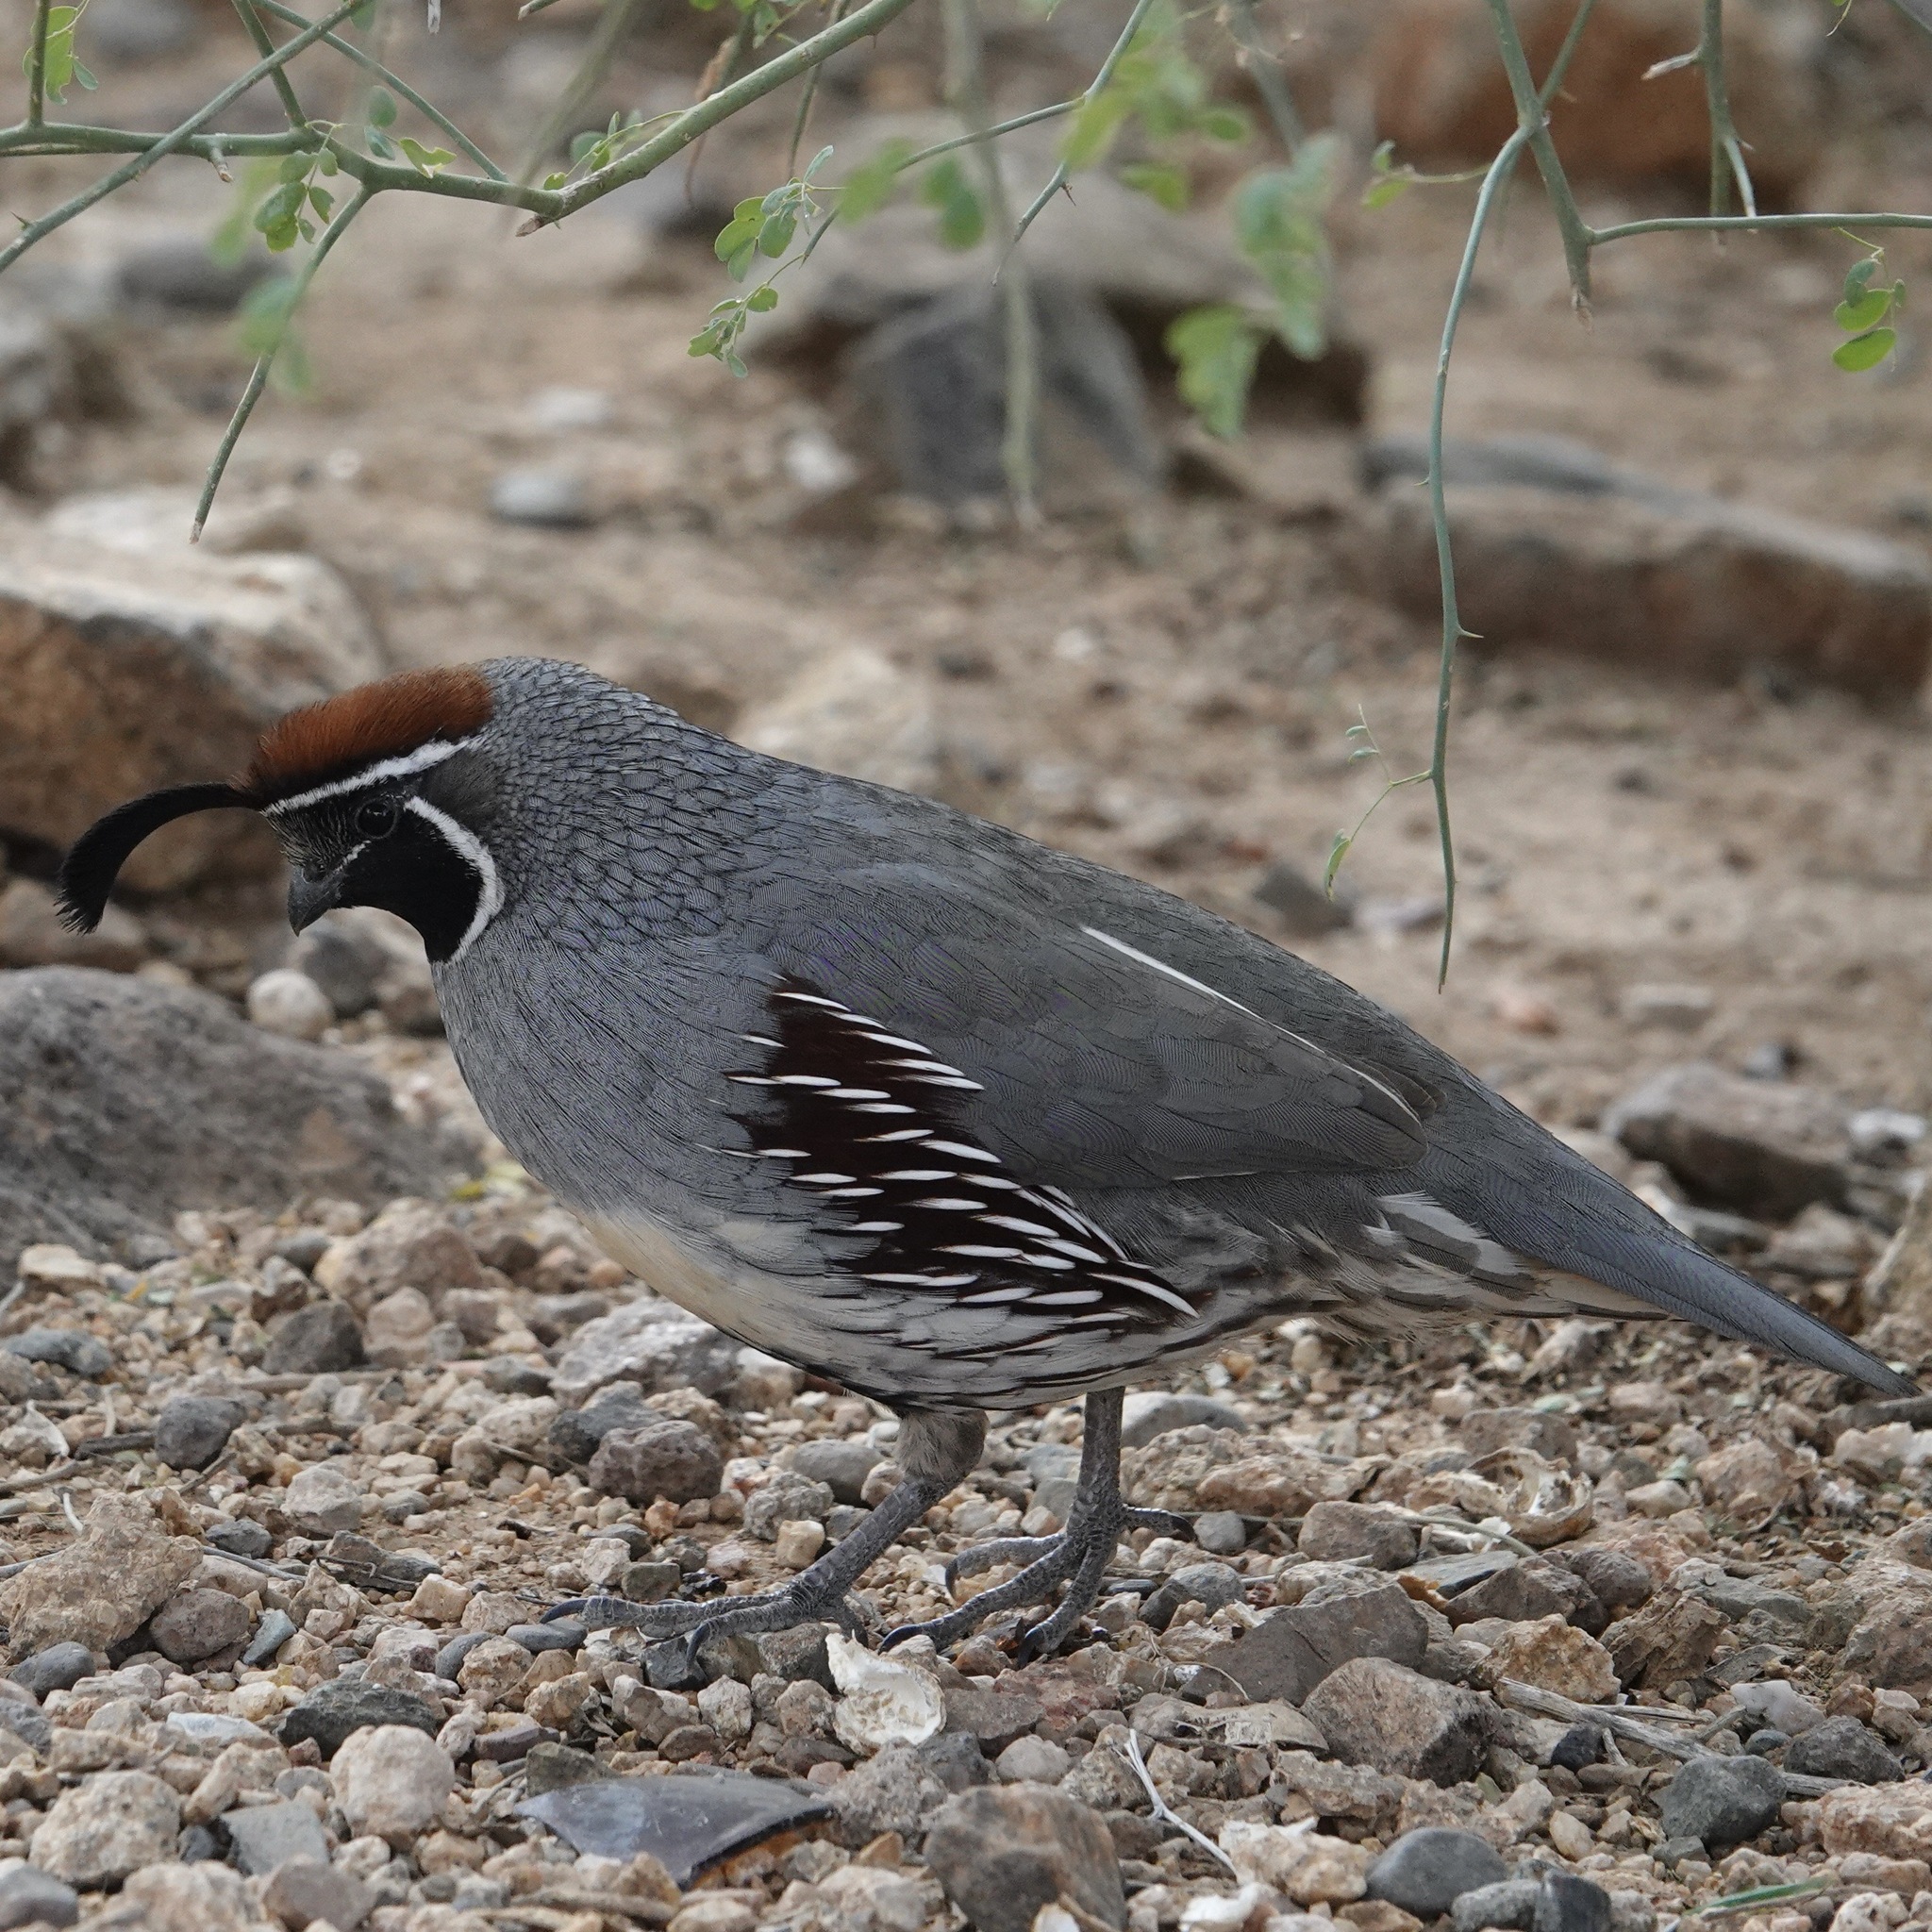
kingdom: Animalia
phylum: Chordata
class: Aves
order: Galliformes
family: Odontophoridae
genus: Callipepla
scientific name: Callipepla gambelii
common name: Gambel's quail
